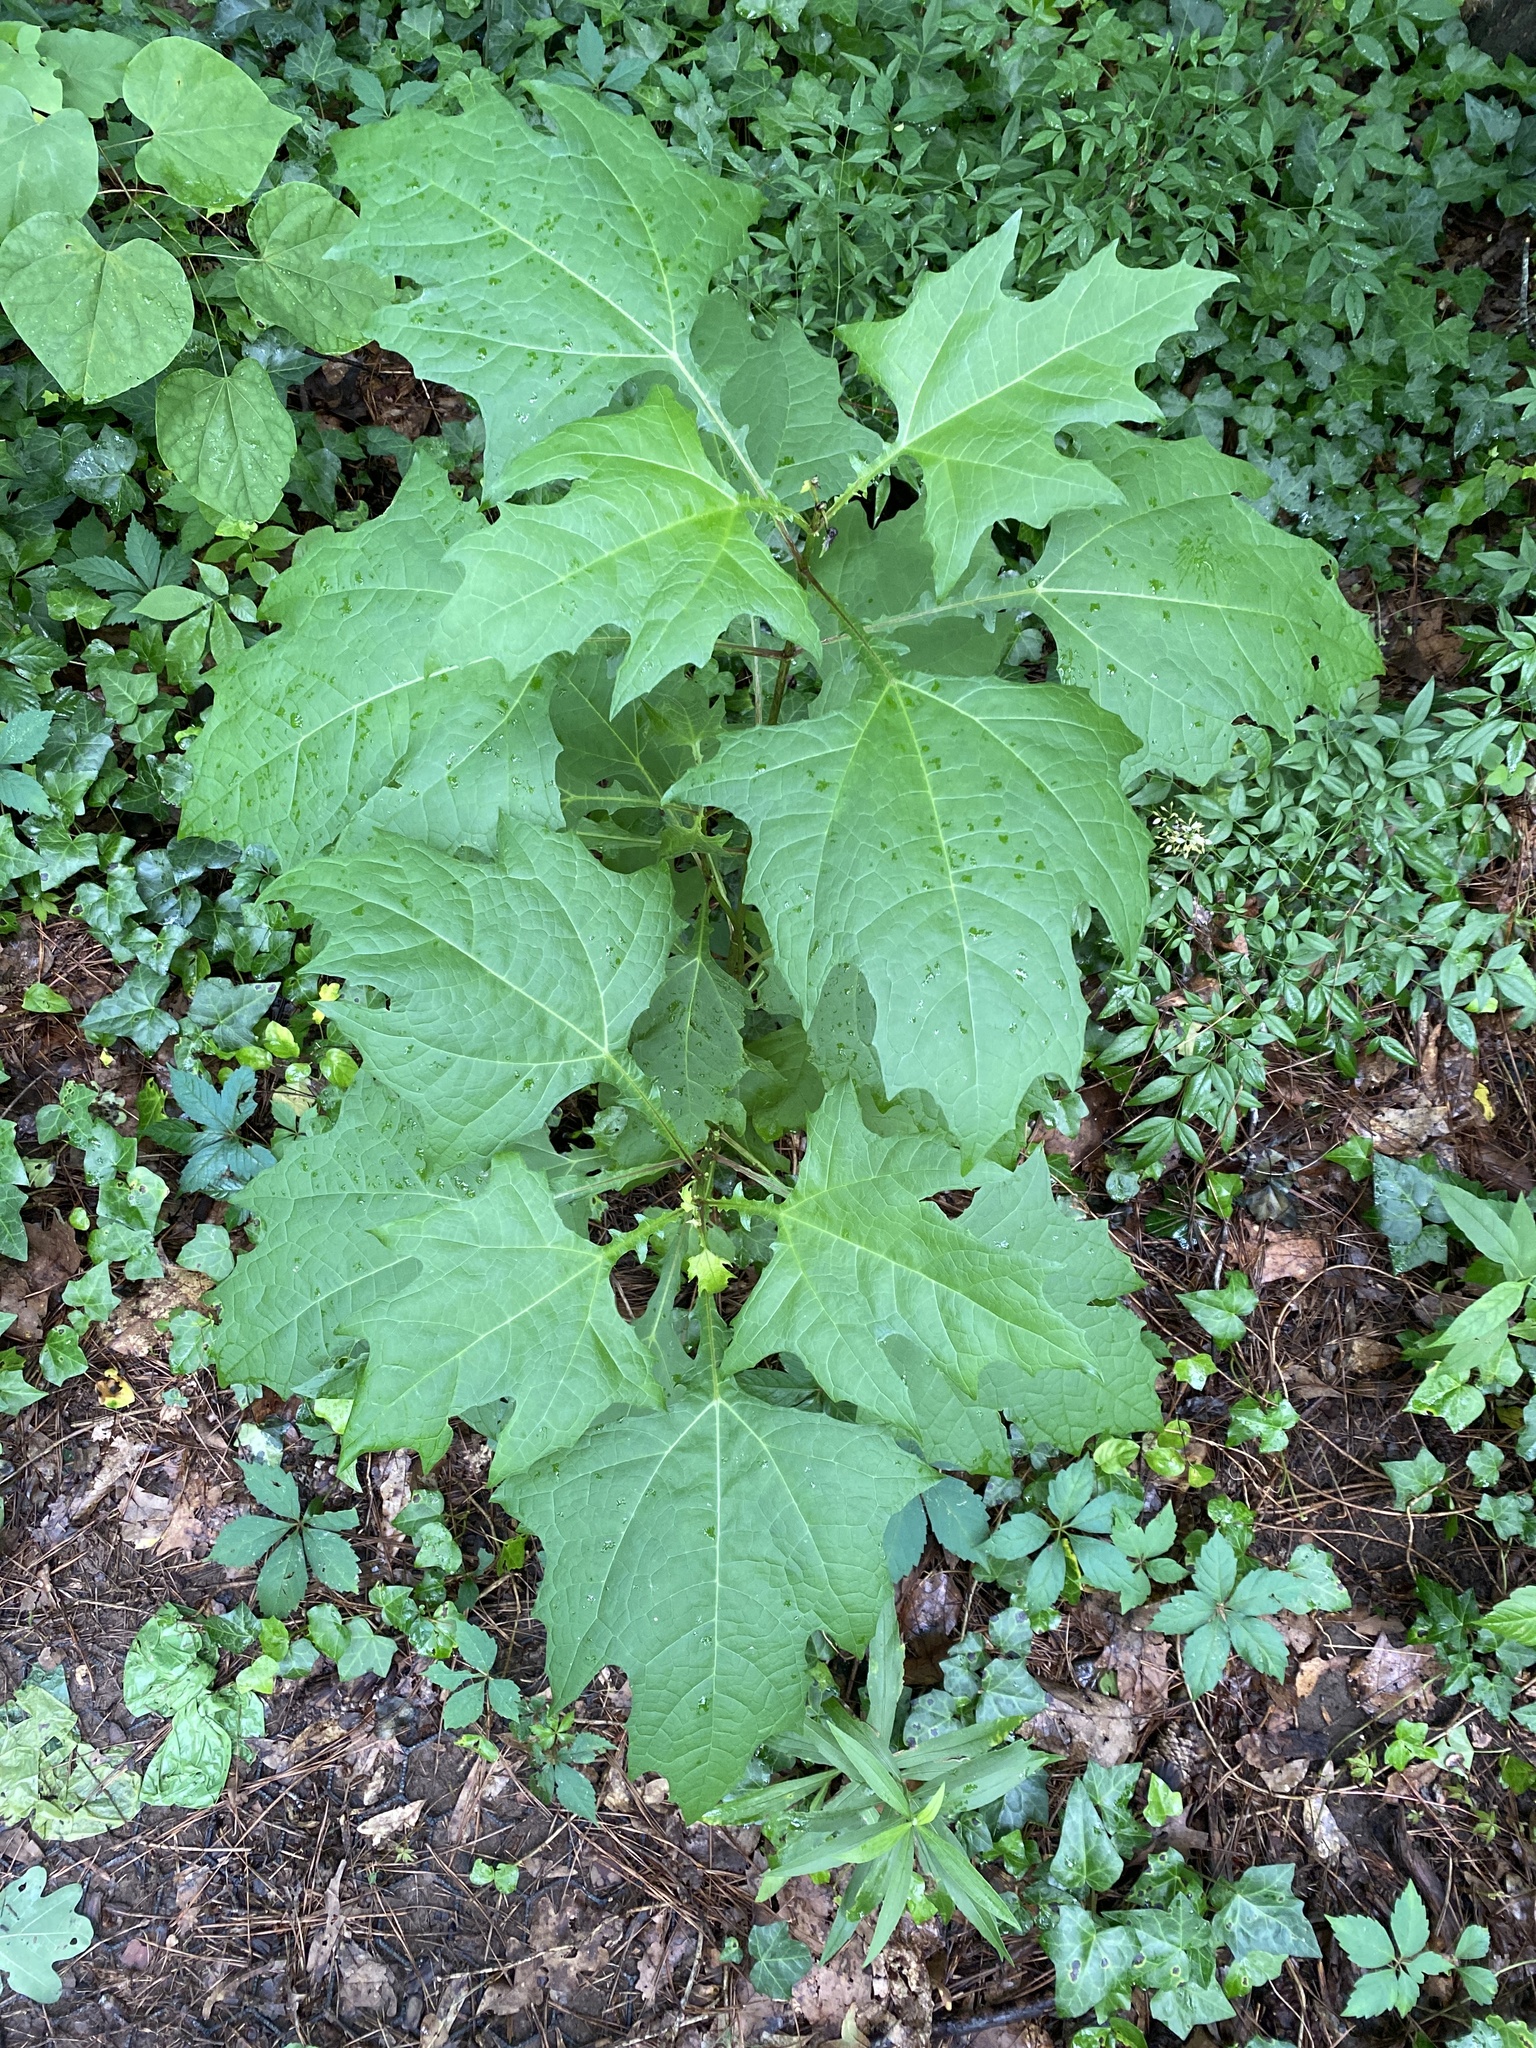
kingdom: Plantae
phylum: Tracheophyta
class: Magnoliopsida
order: Asterales
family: Asteraceae
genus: Smallanthus
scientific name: Smallanthus uvedalia
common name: Bear's-foot
